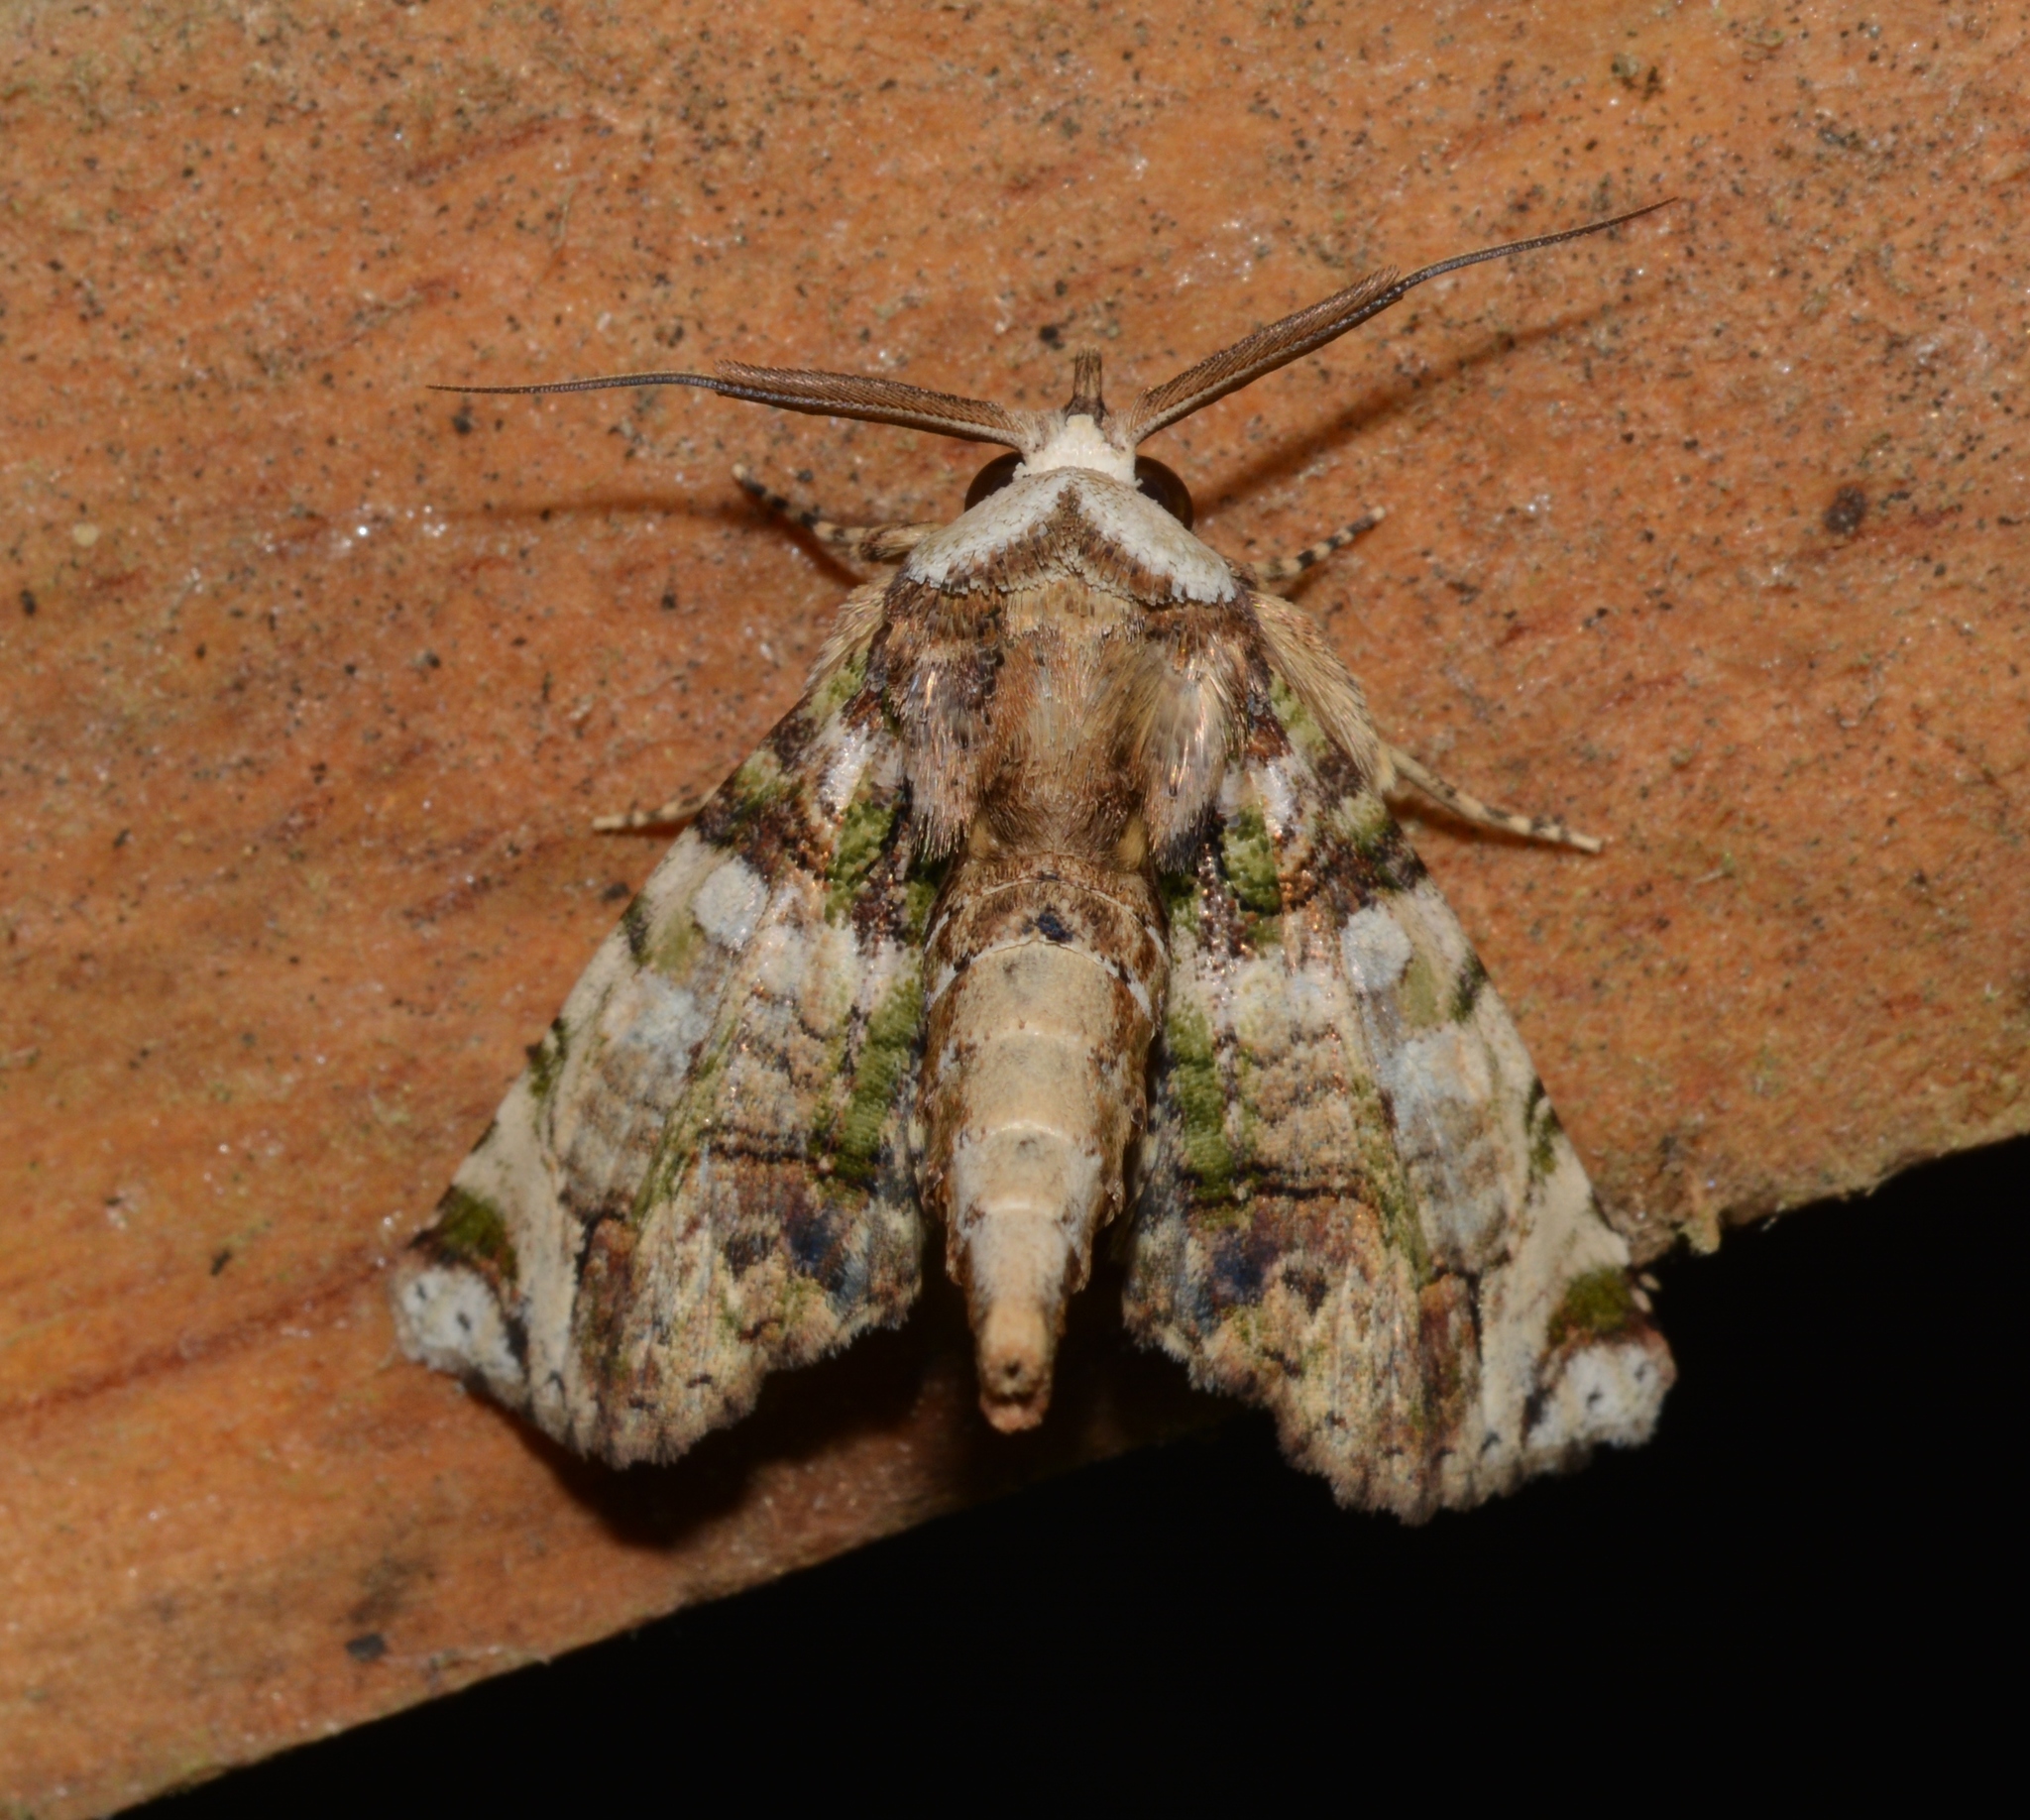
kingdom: Animalia
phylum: Arthropoda
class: Insecta
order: Lepidoptera
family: Euteliidae
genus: Paectes
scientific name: Paectes canofusa
